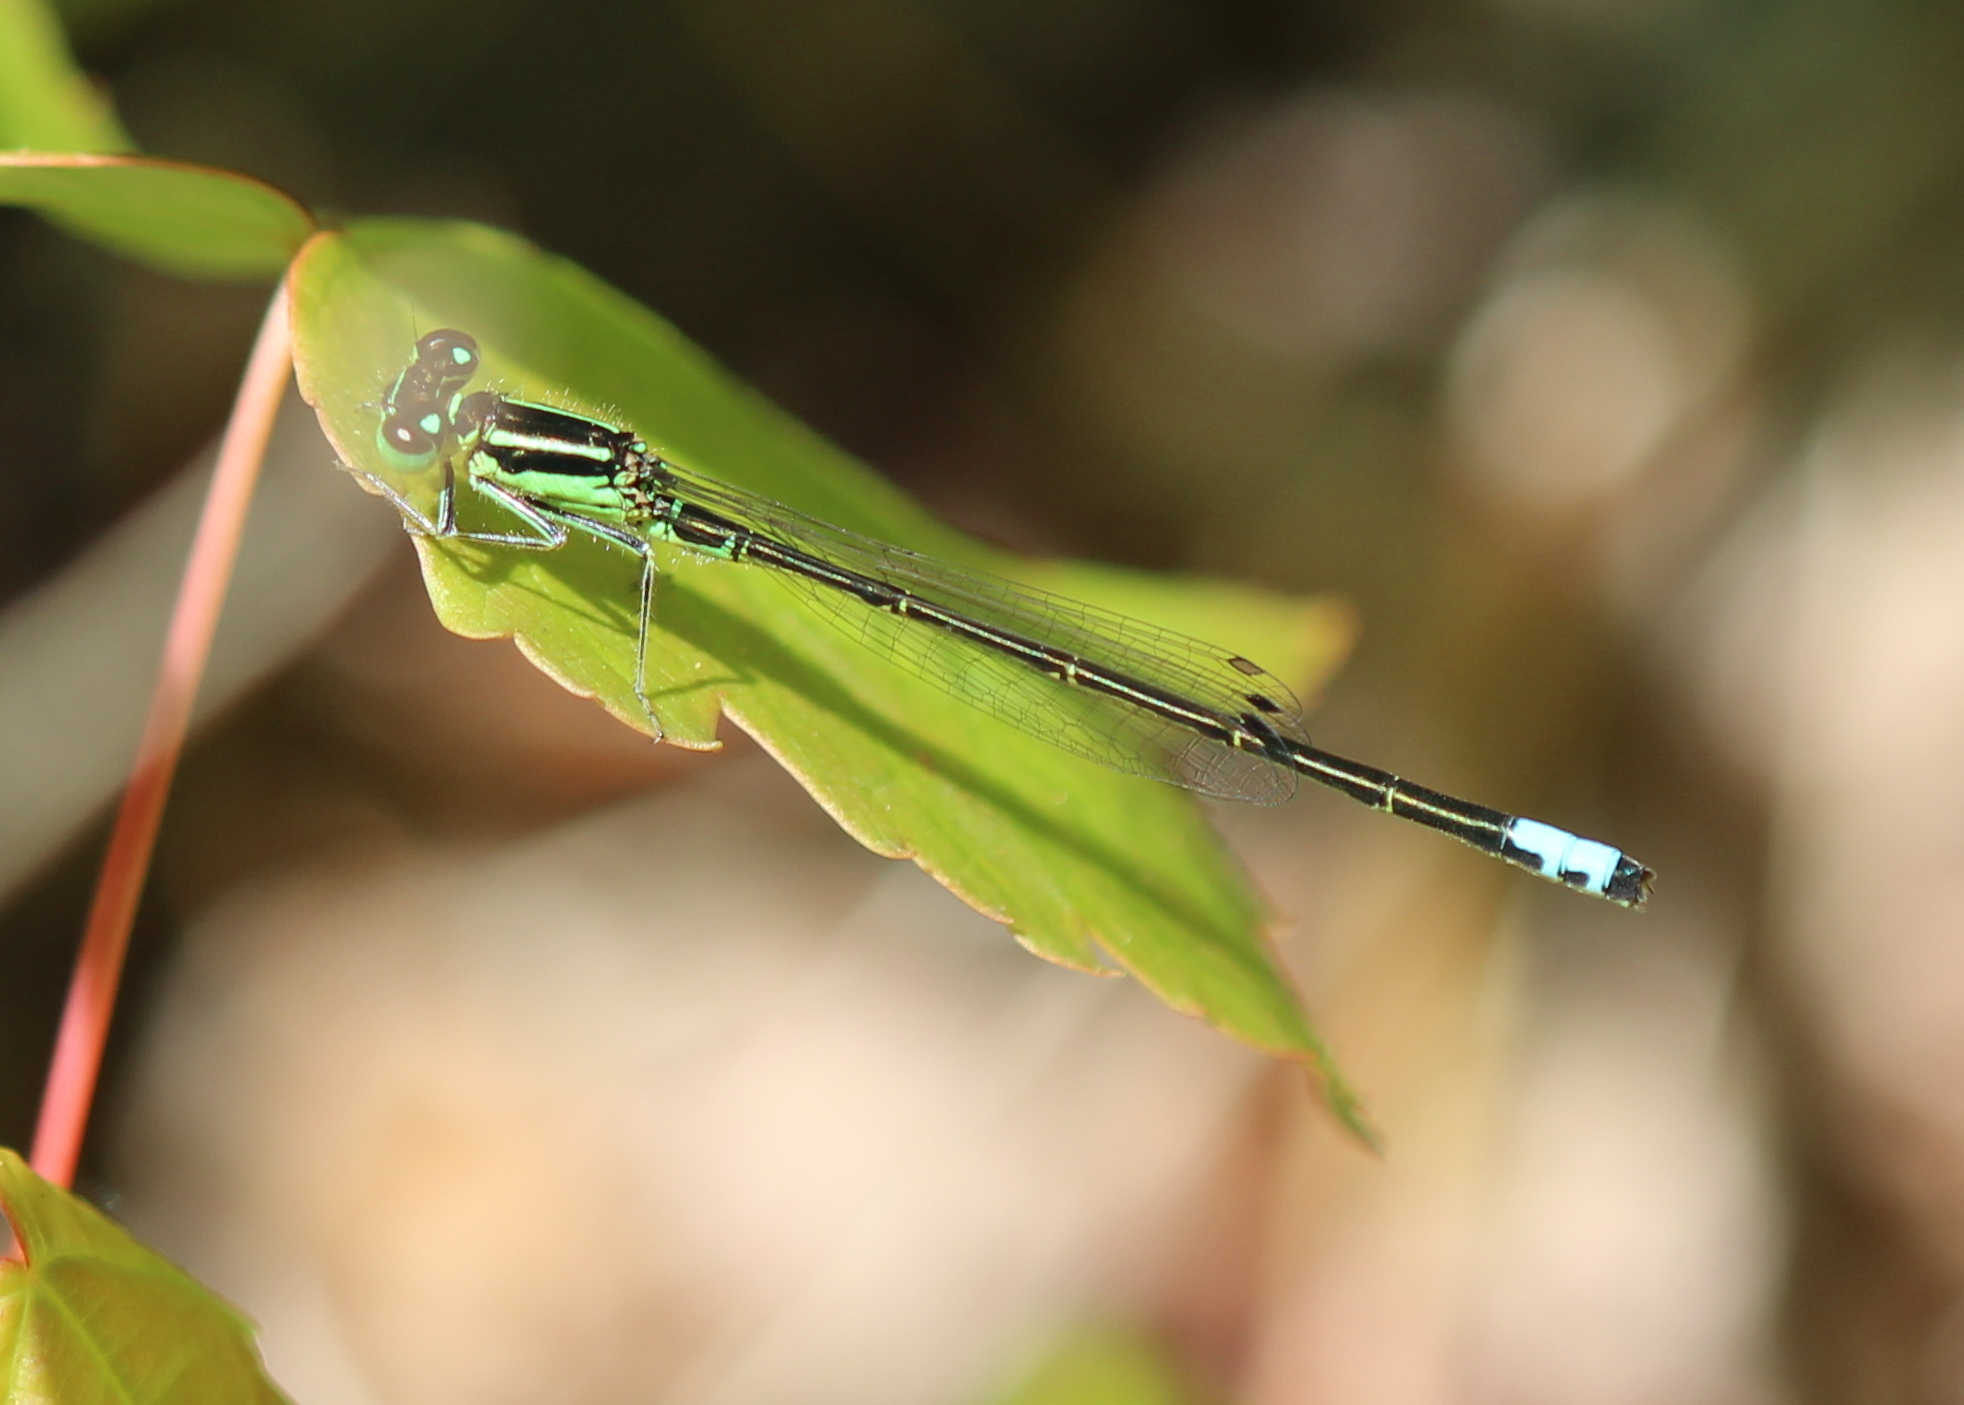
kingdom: Animalia
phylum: Arthropoda
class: Insecta
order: Odonata
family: Coenagrionidae
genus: Ischnura
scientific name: Ischnura verticalis
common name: Eastern forktail
